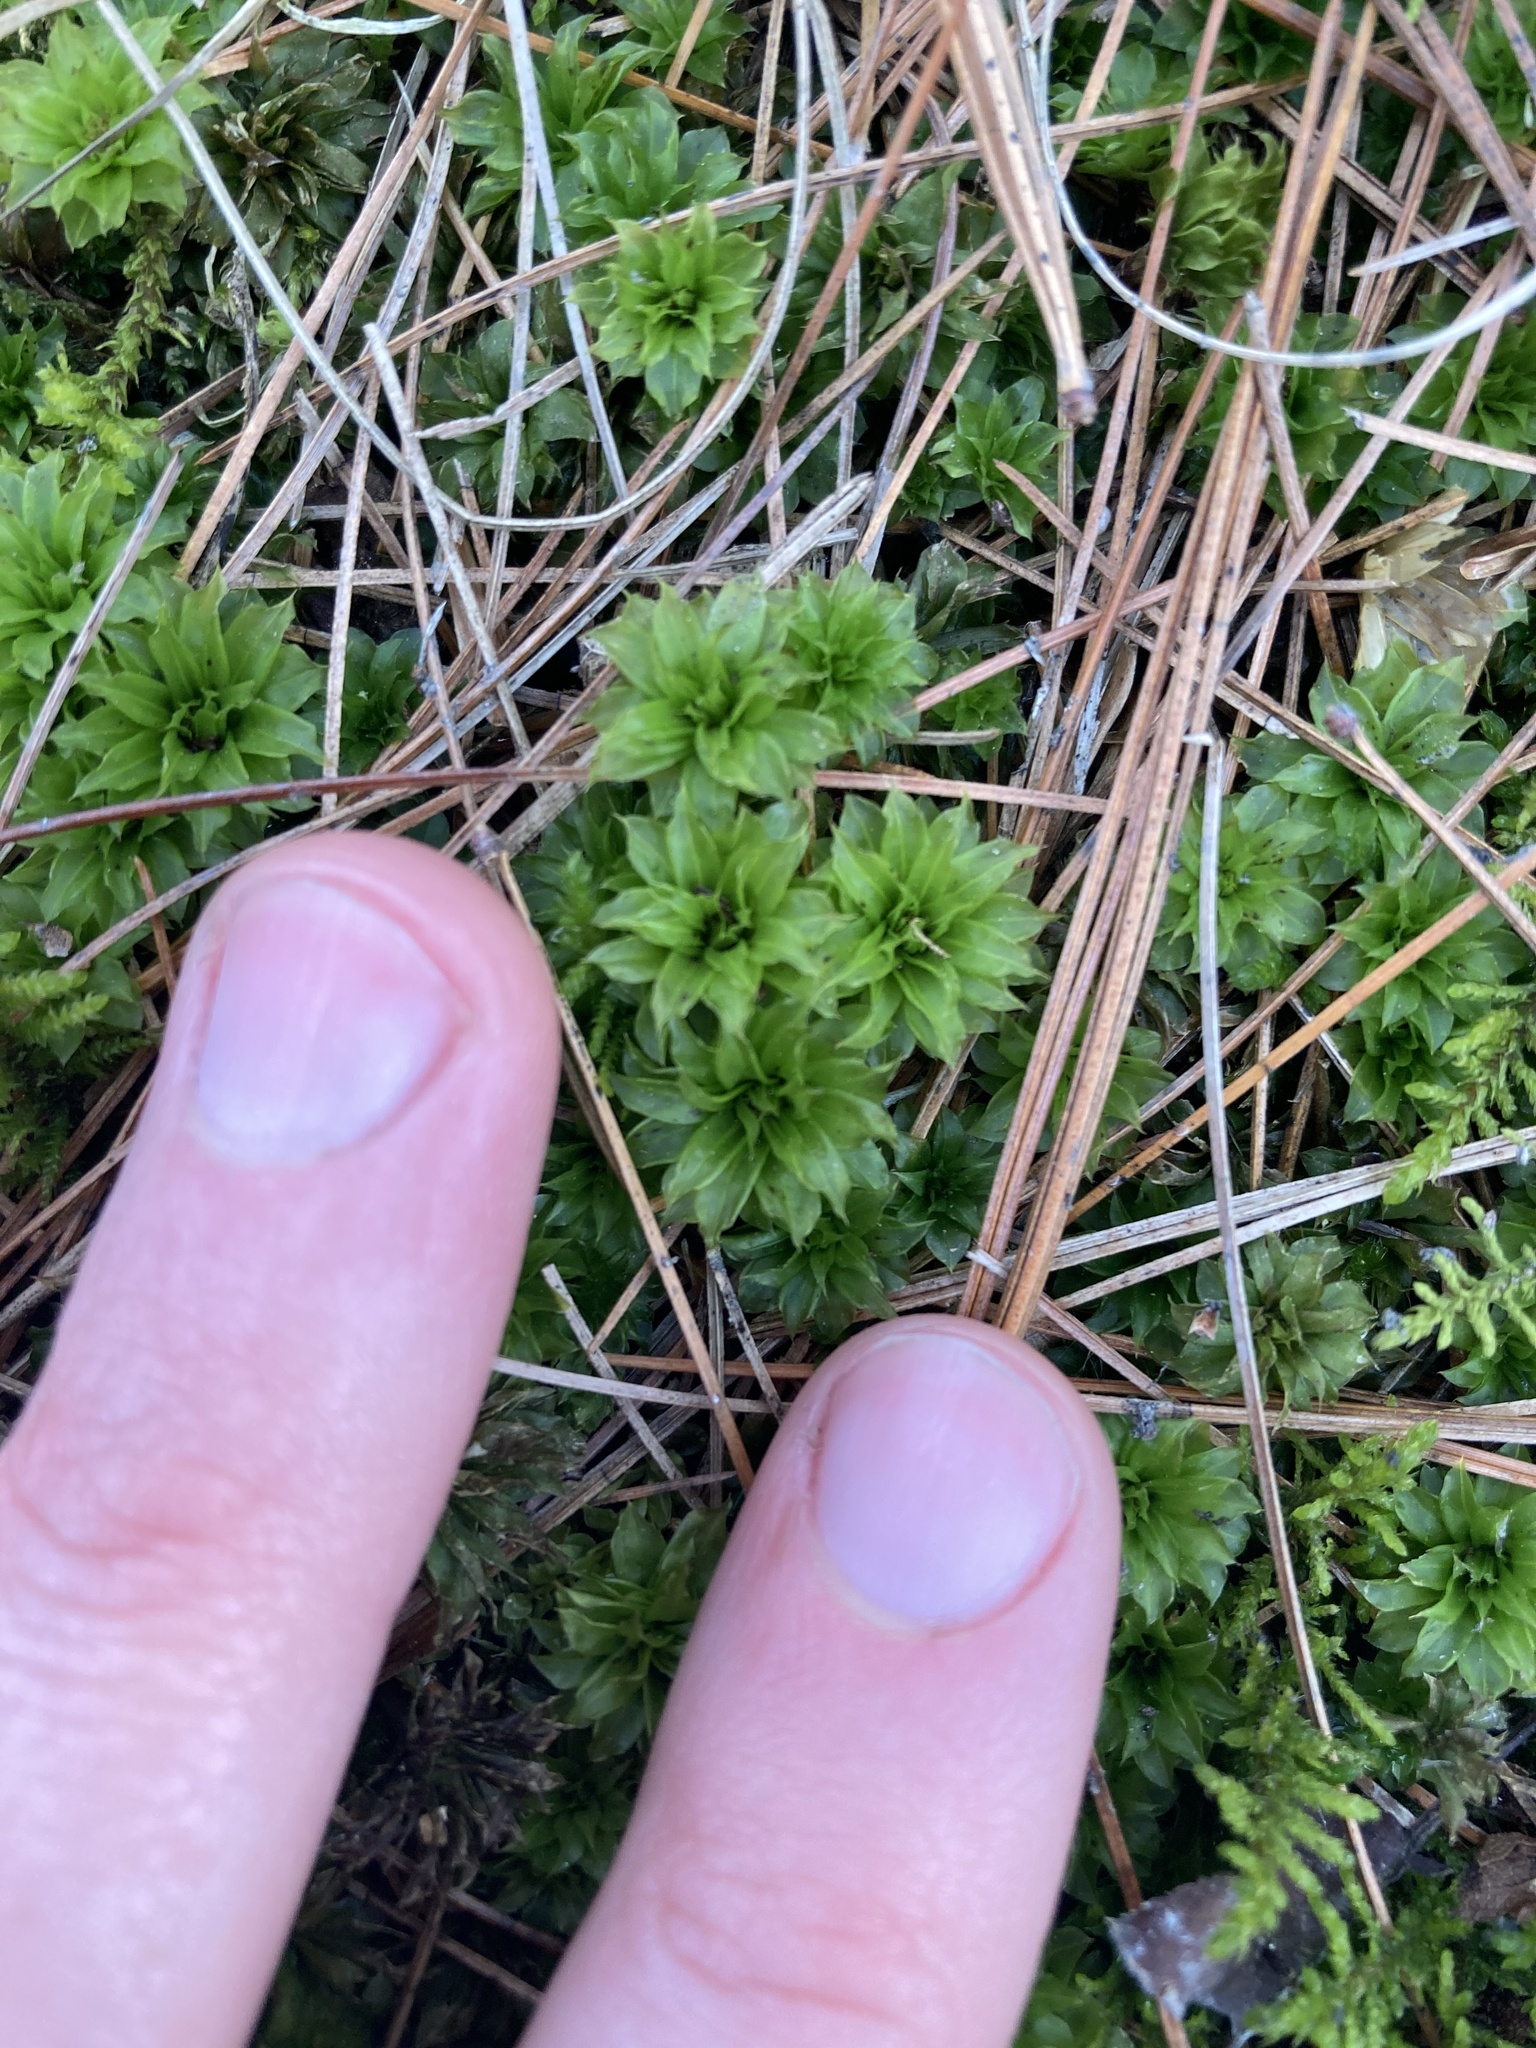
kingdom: Plantae
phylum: Bryophyta
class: Bryopsida
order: Bryales
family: Bryaceae
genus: Rhodobryum
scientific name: Rhodobryum ontariense
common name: Ontario rhodobryum moss
